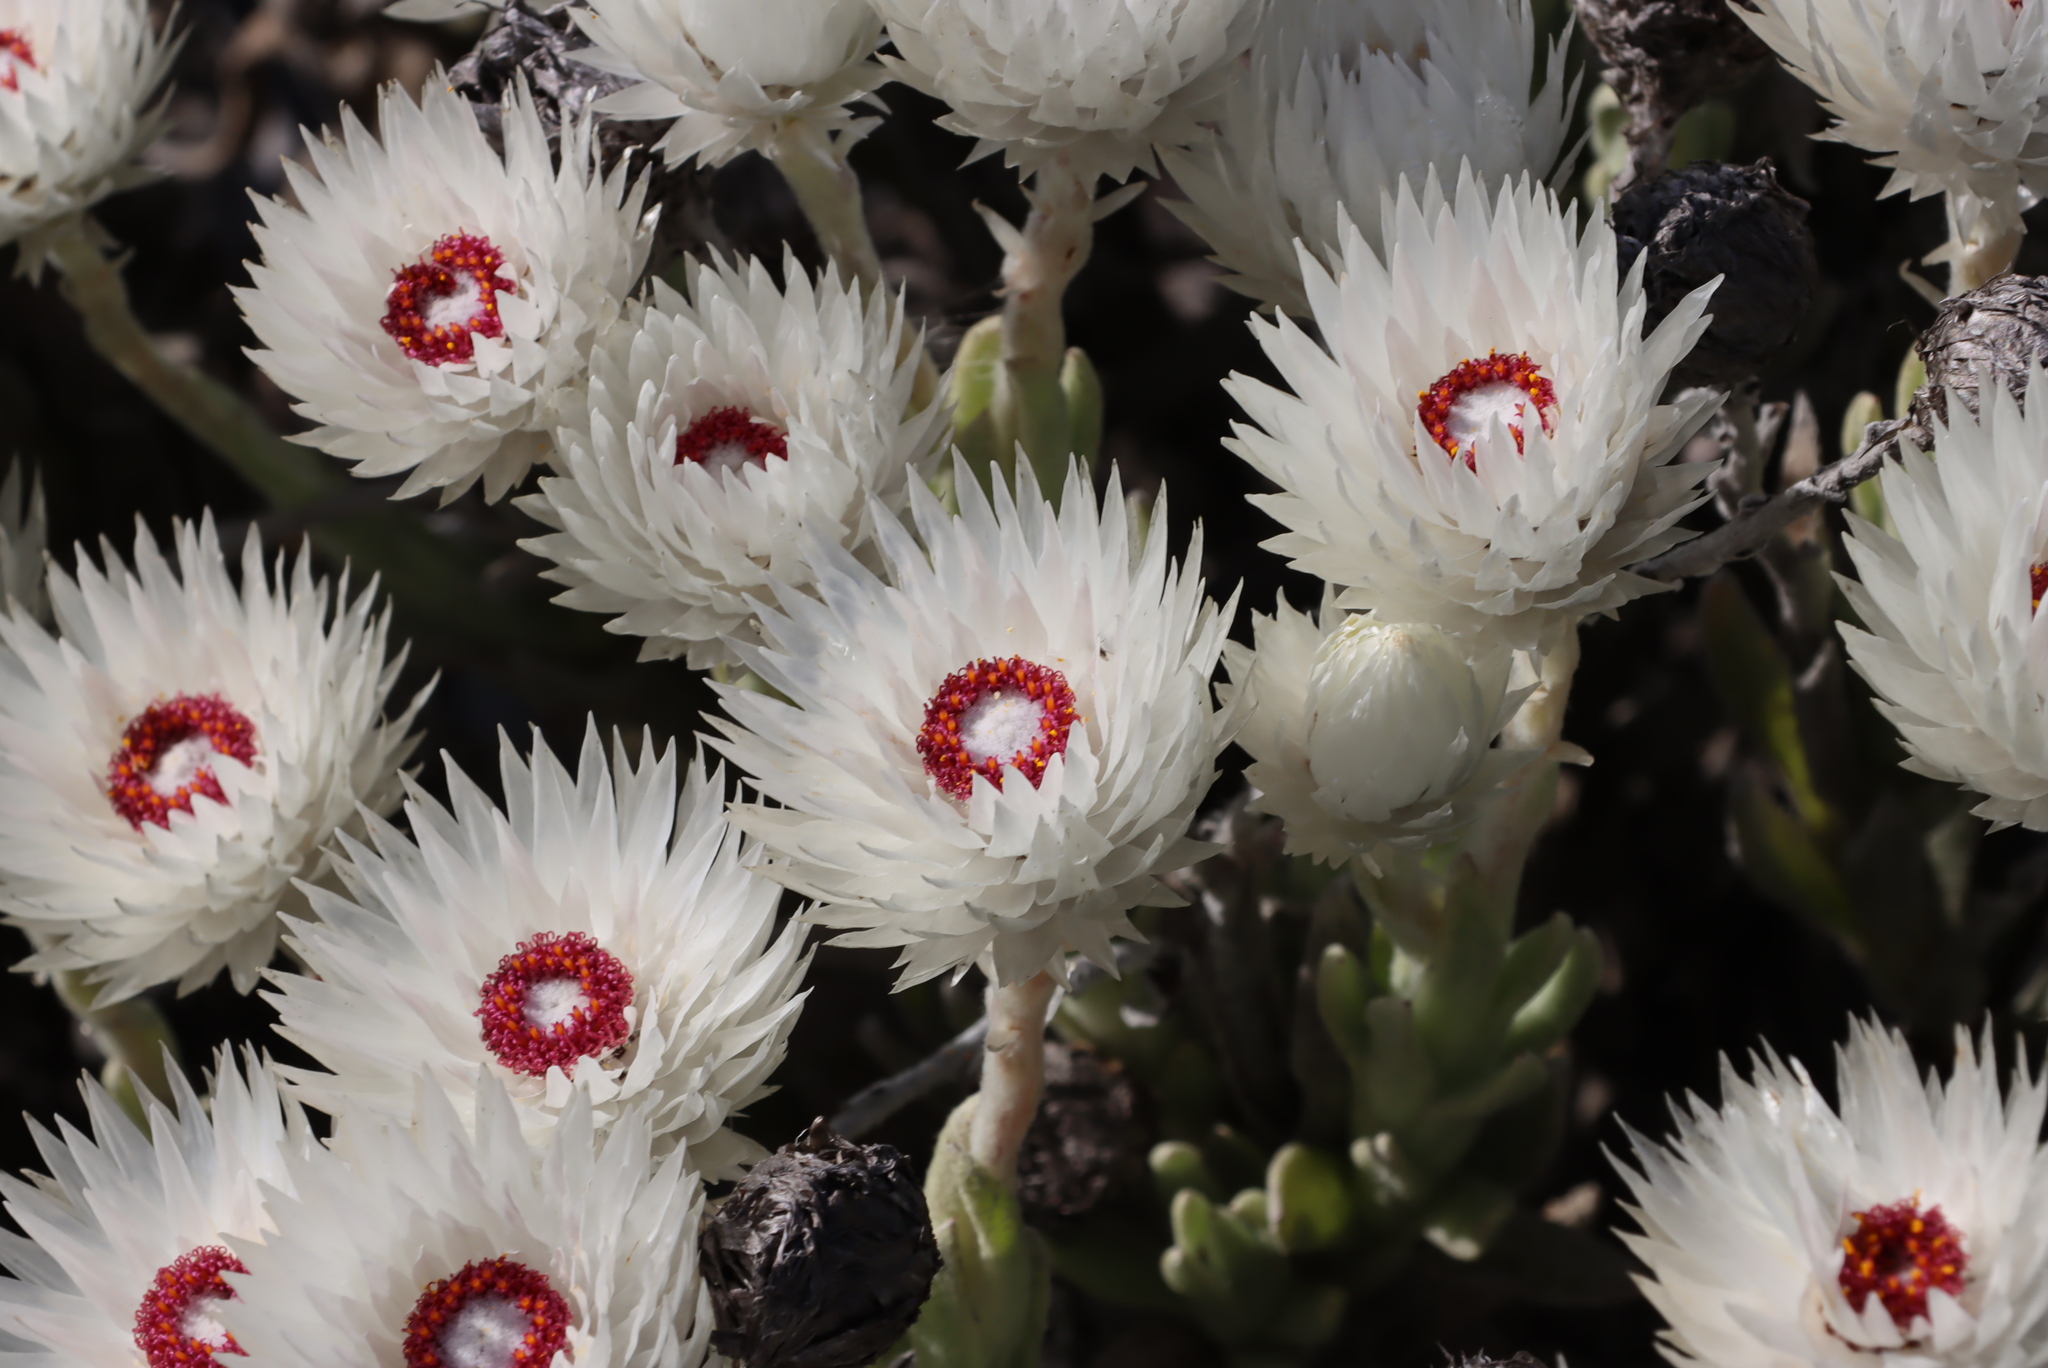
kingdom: Plantae
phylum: Tracheophyta
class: Magnoliopsida
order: Asterales
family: Asteraceae
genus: Syncarpha
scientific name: Syncarpha vestita
